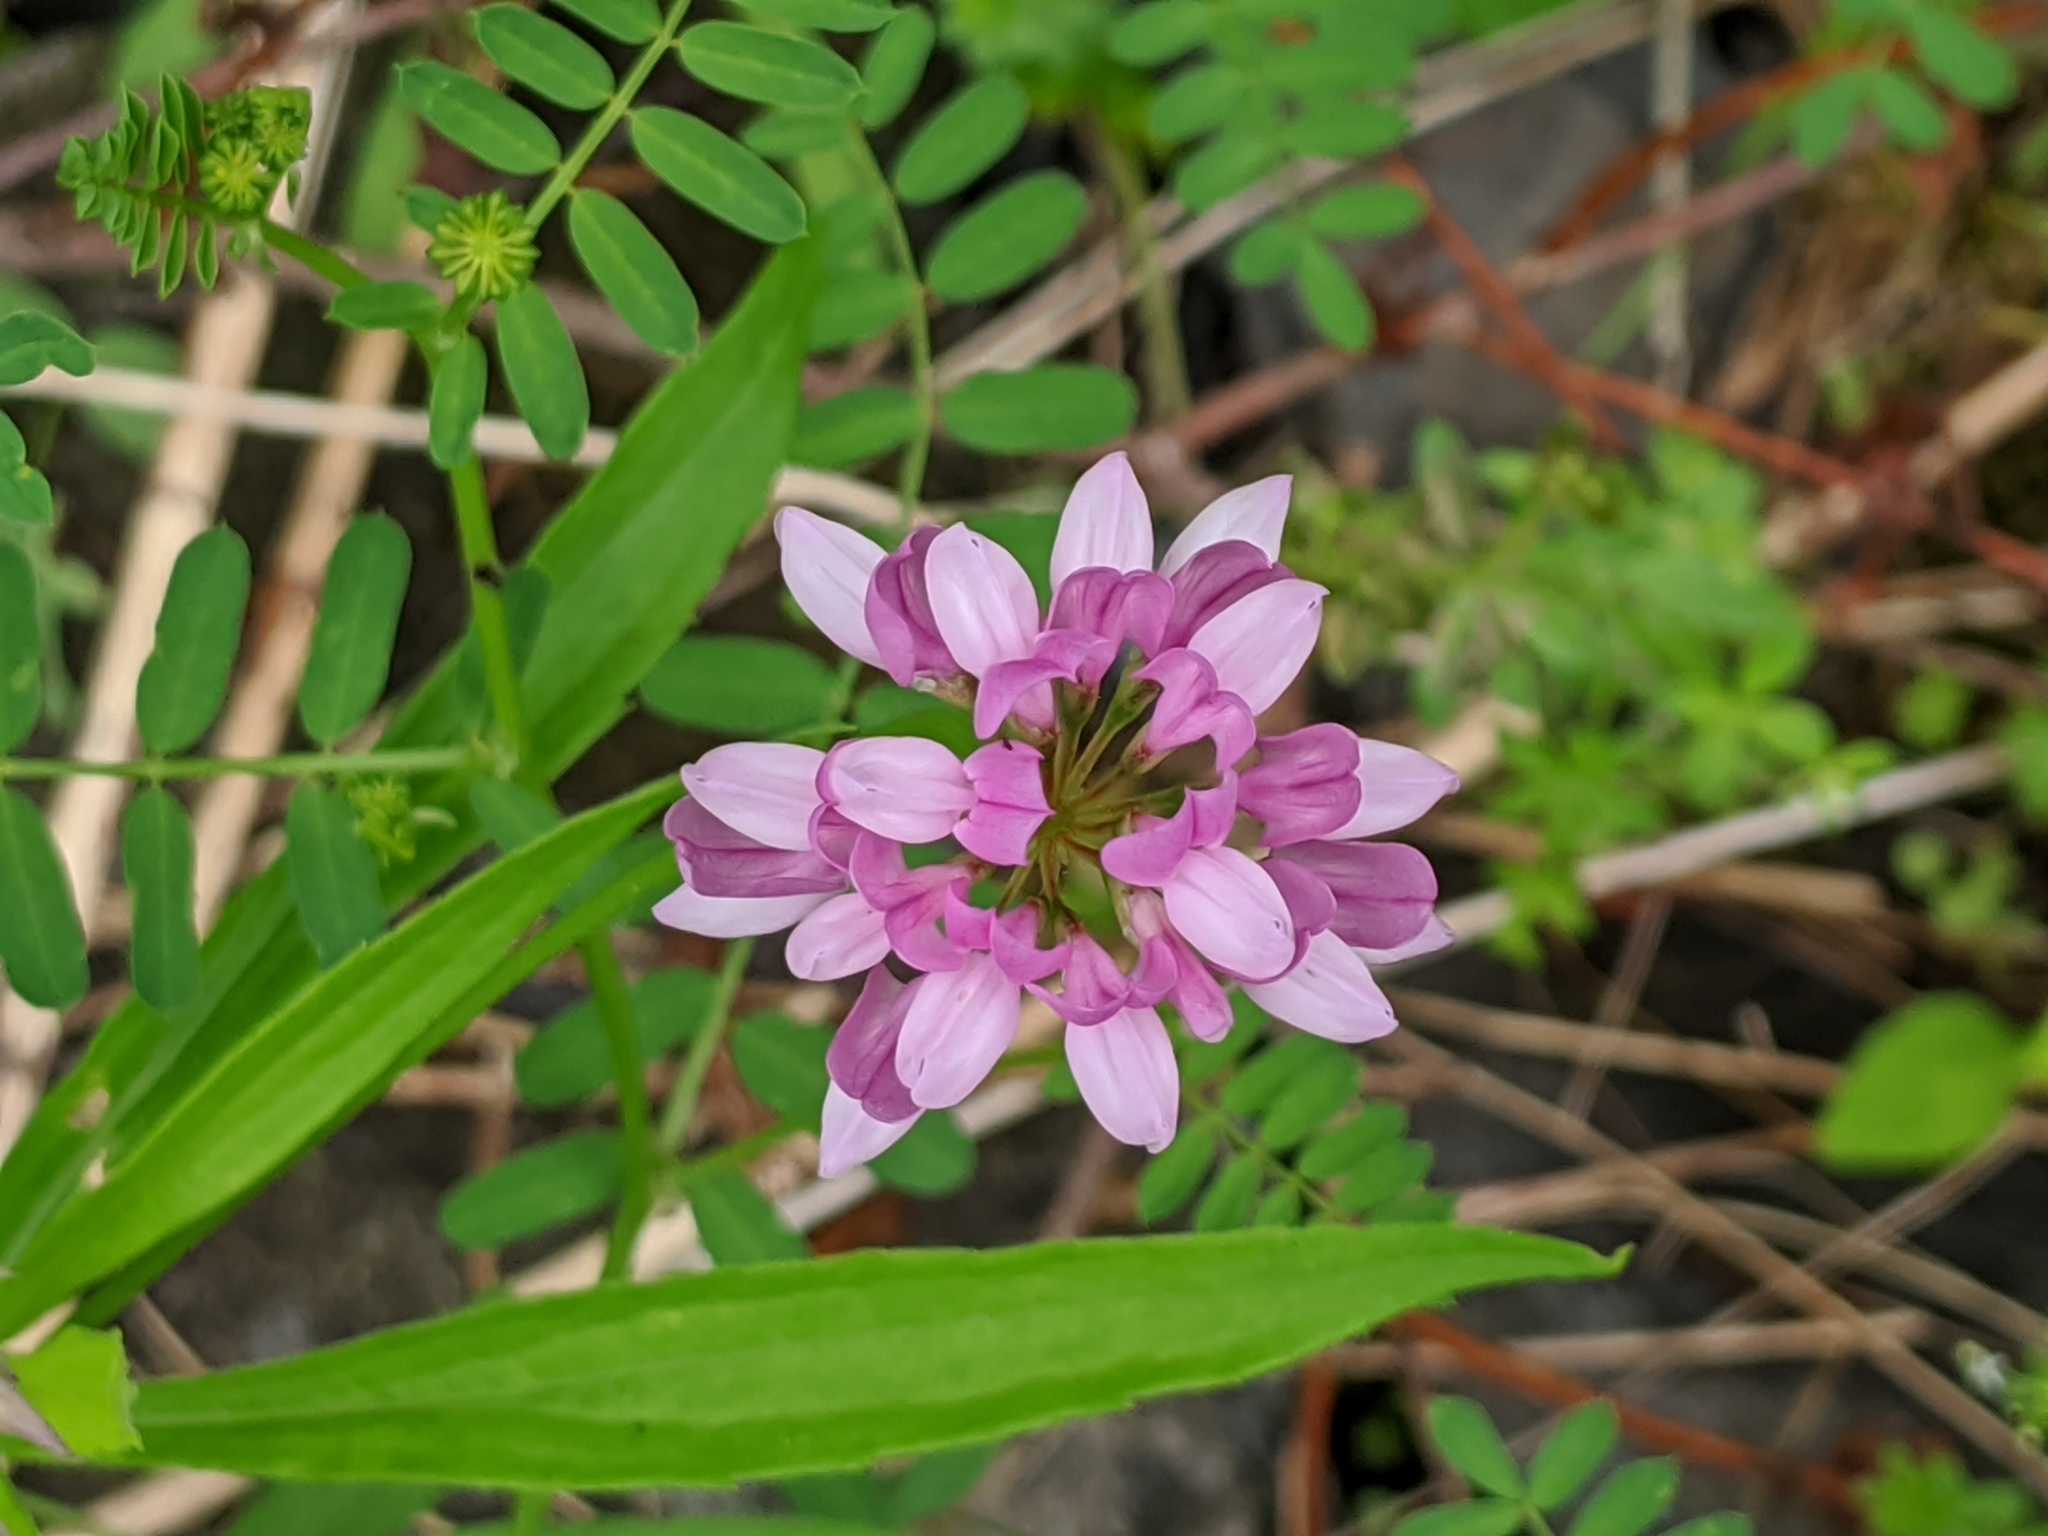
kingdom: Plantae
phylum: Tracheophyta
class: Magnoliopsida
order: Fabales
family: Fabaceae
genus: Coronilla
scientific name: Coronilla varia
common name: Crownvetch
